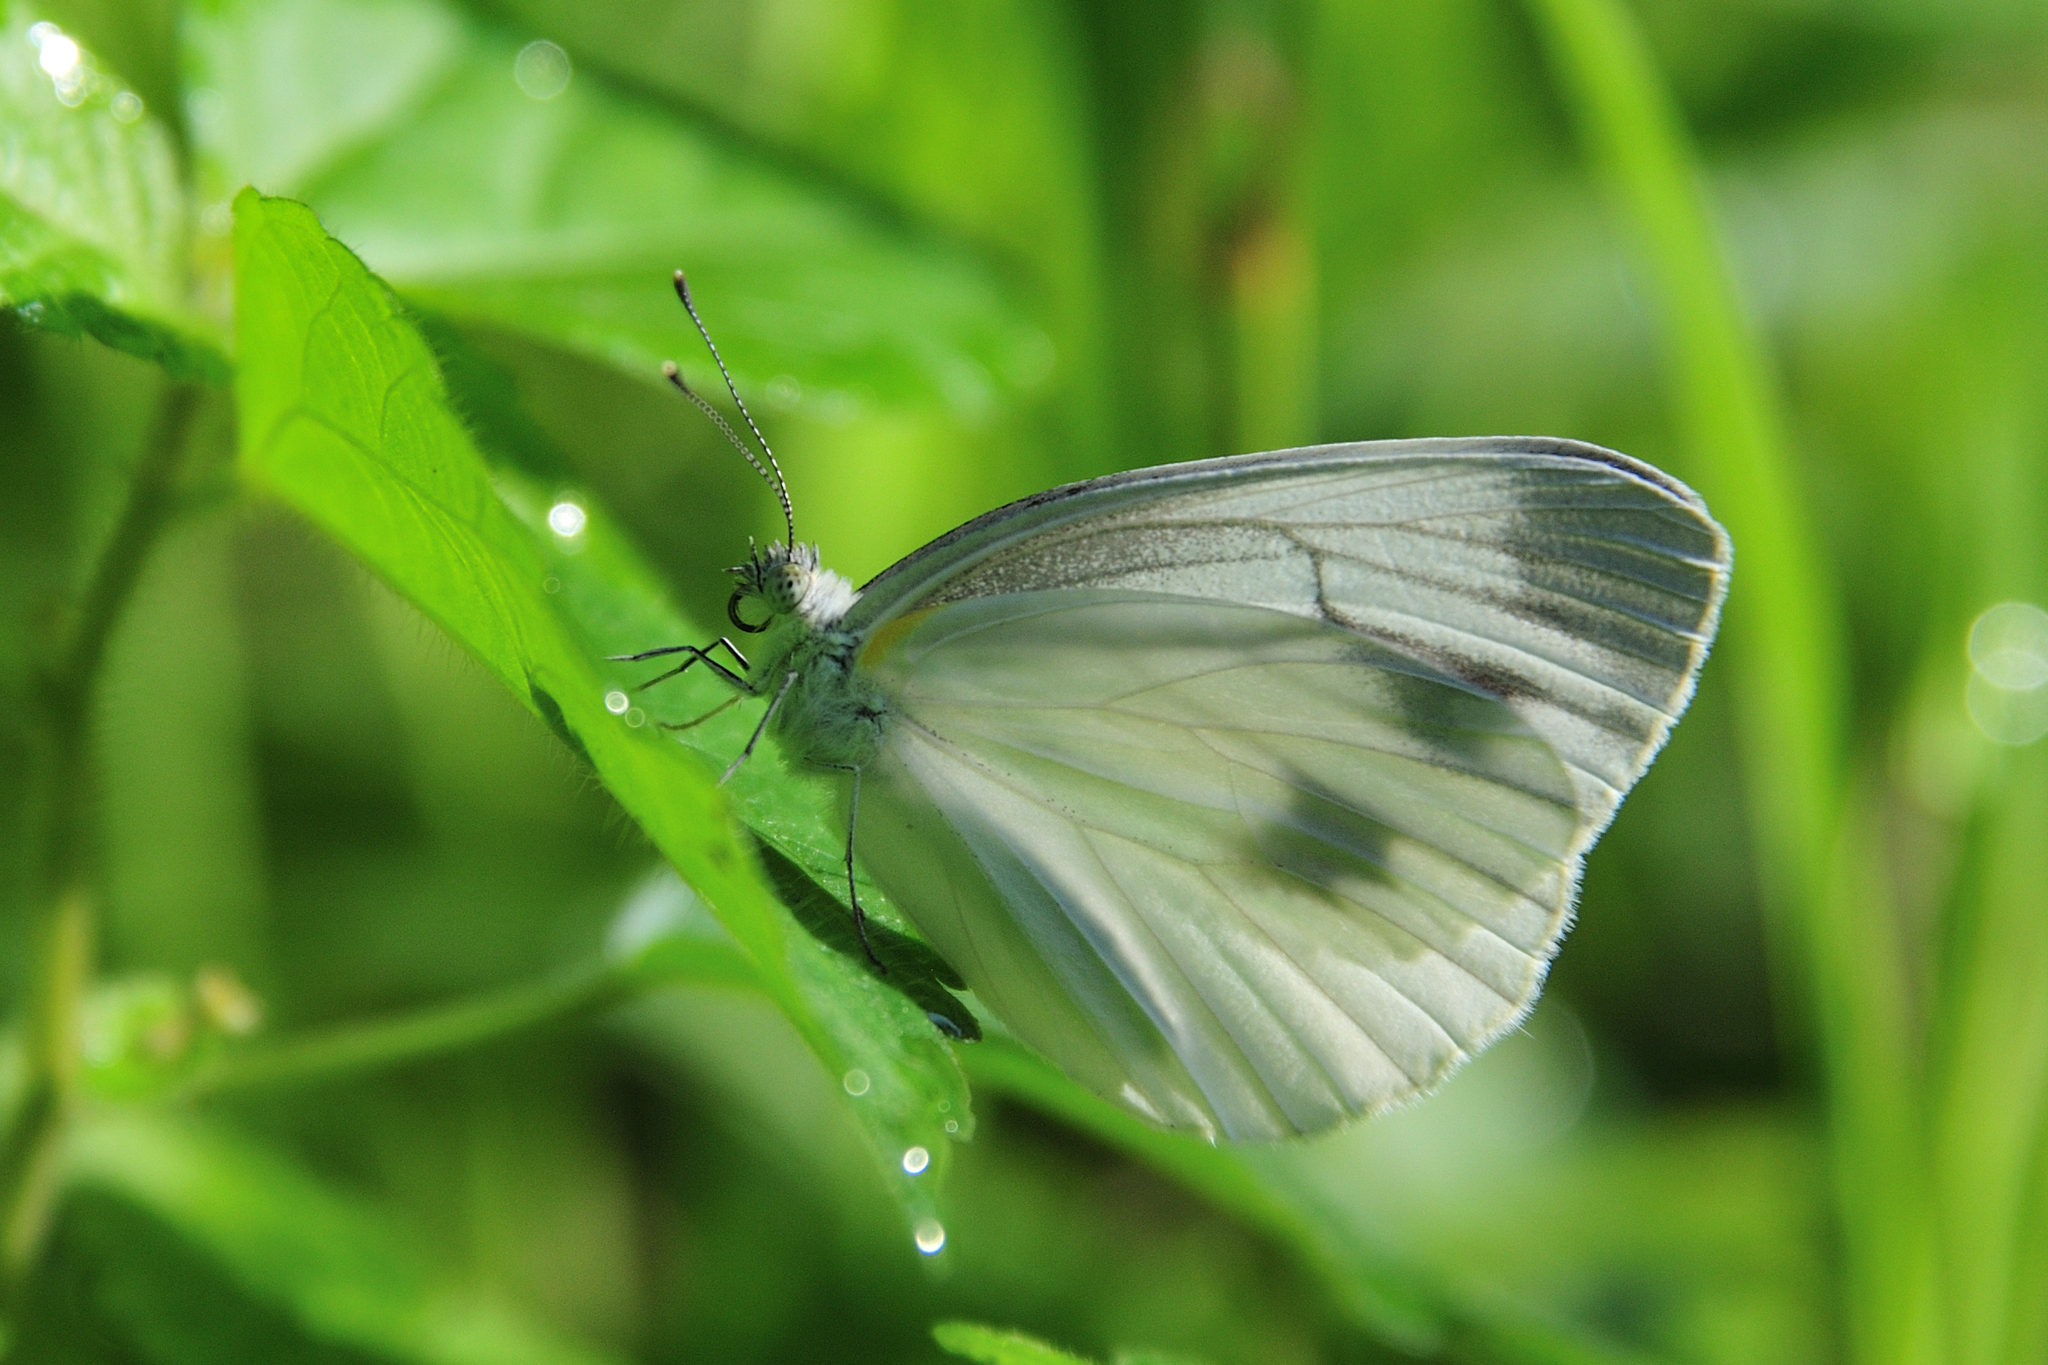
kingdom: Animalia
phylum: Arthropoda
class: Insecta
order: Lepidoptera
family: Pieridae
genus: Pieris
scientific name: Pieris melete
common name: Asian green-veined white
